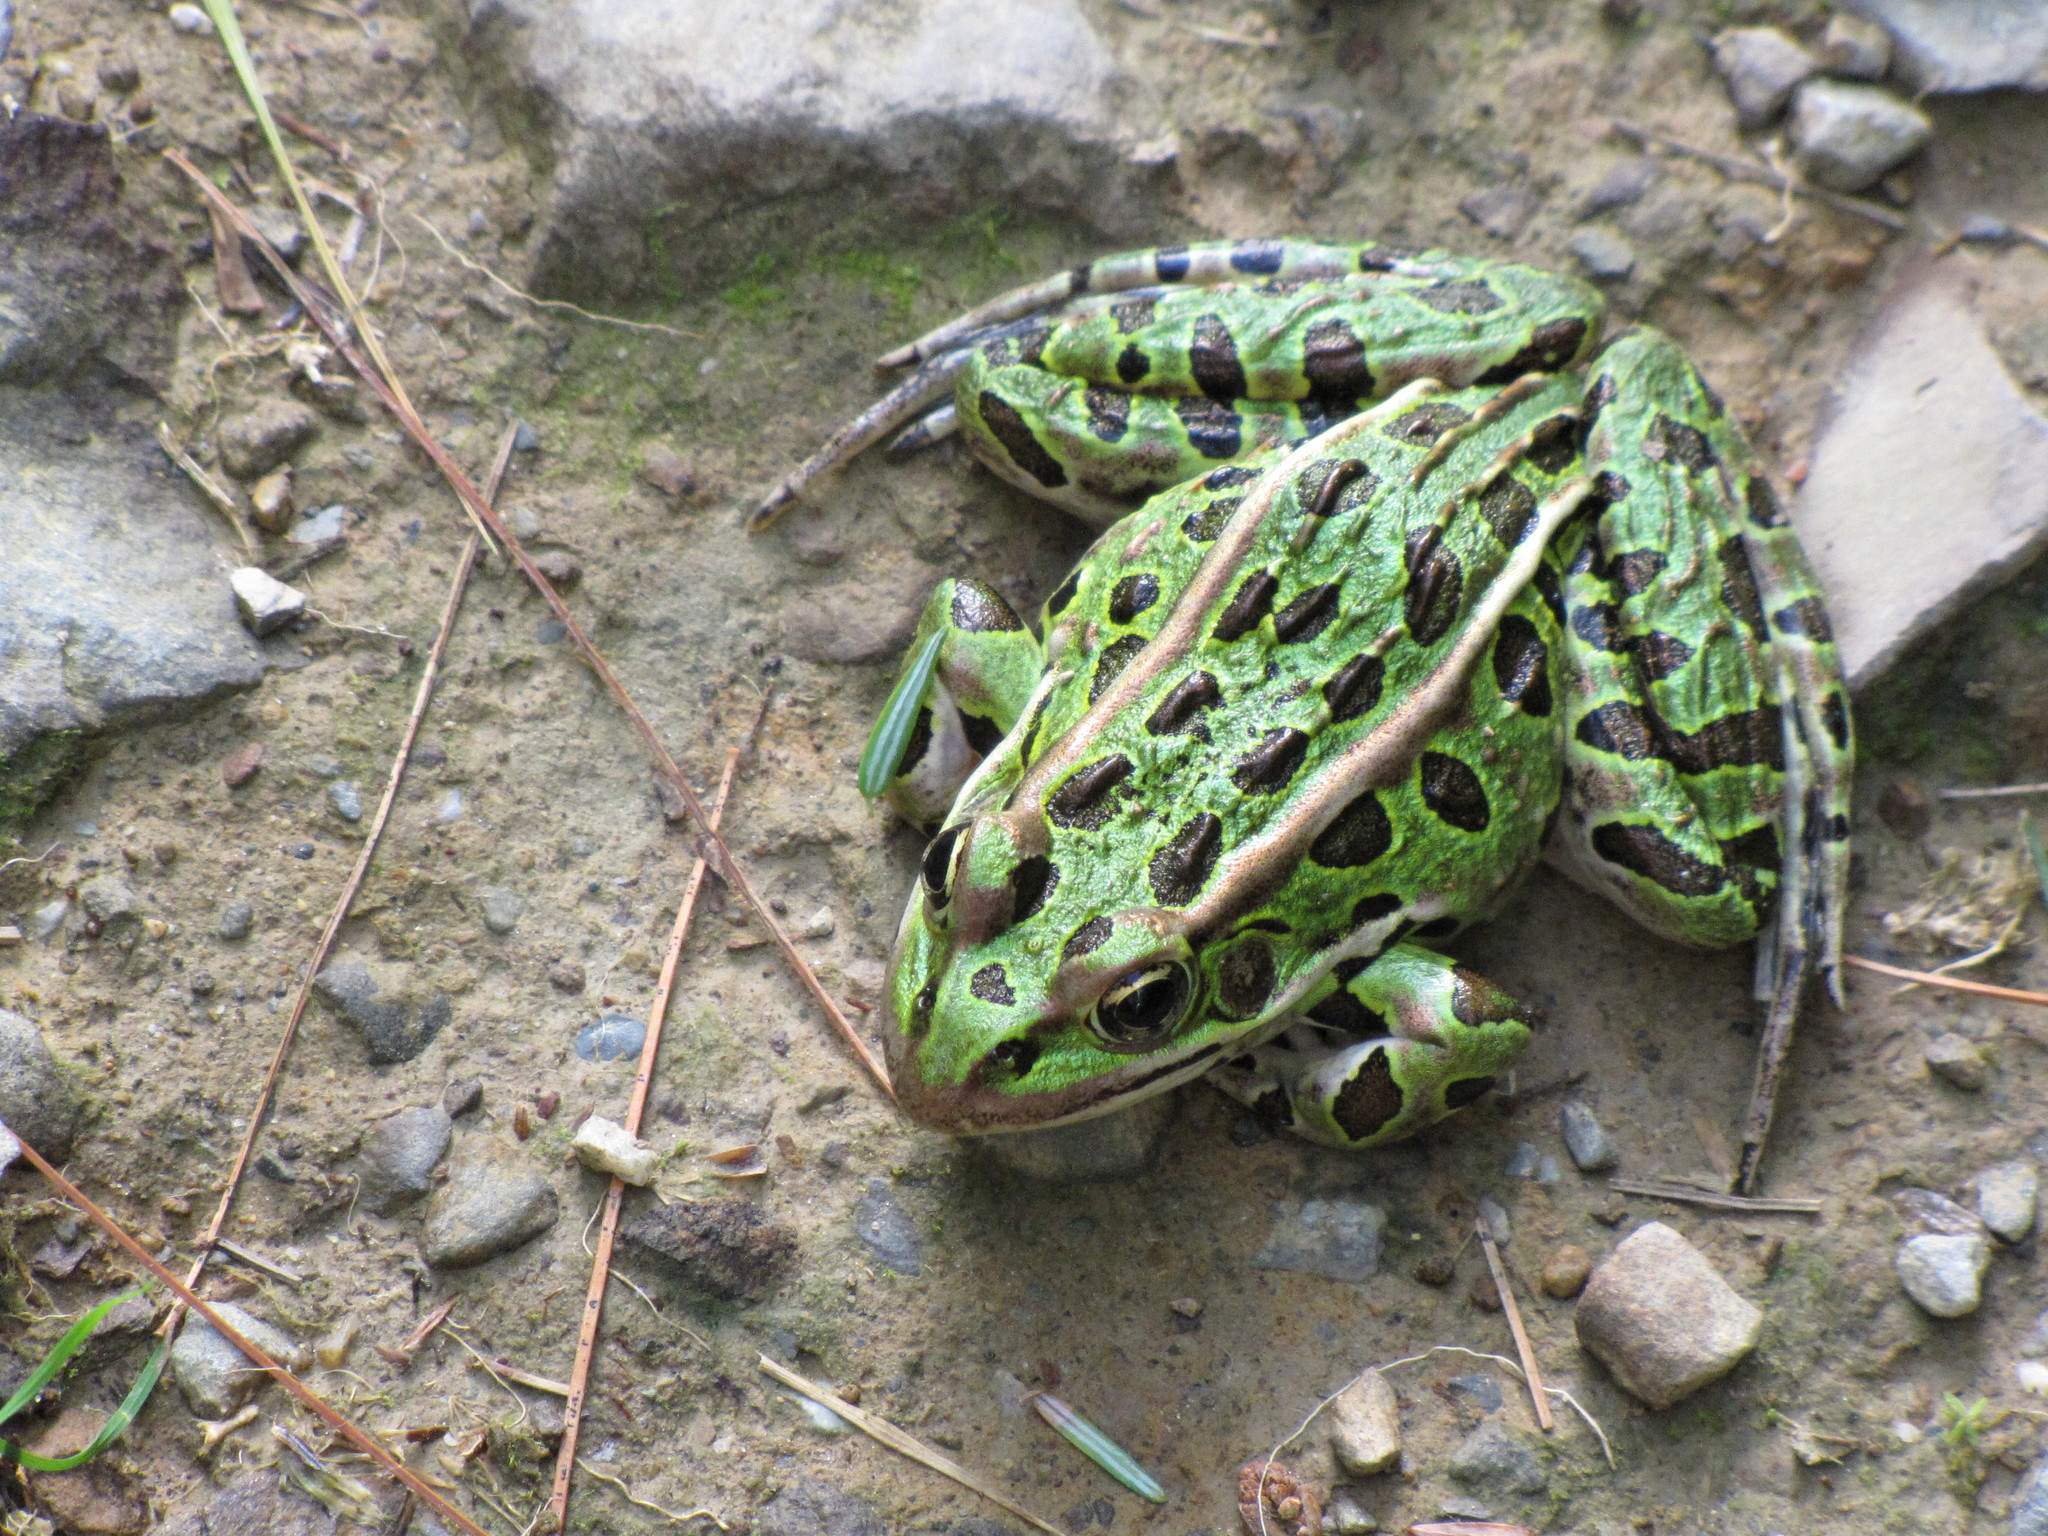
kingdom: Animalia
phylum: Chordata
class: Amphibia
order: Anura
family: Ranidae
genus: Lithobates
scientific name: Lithobates pipiens
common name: Northern leopard frog
